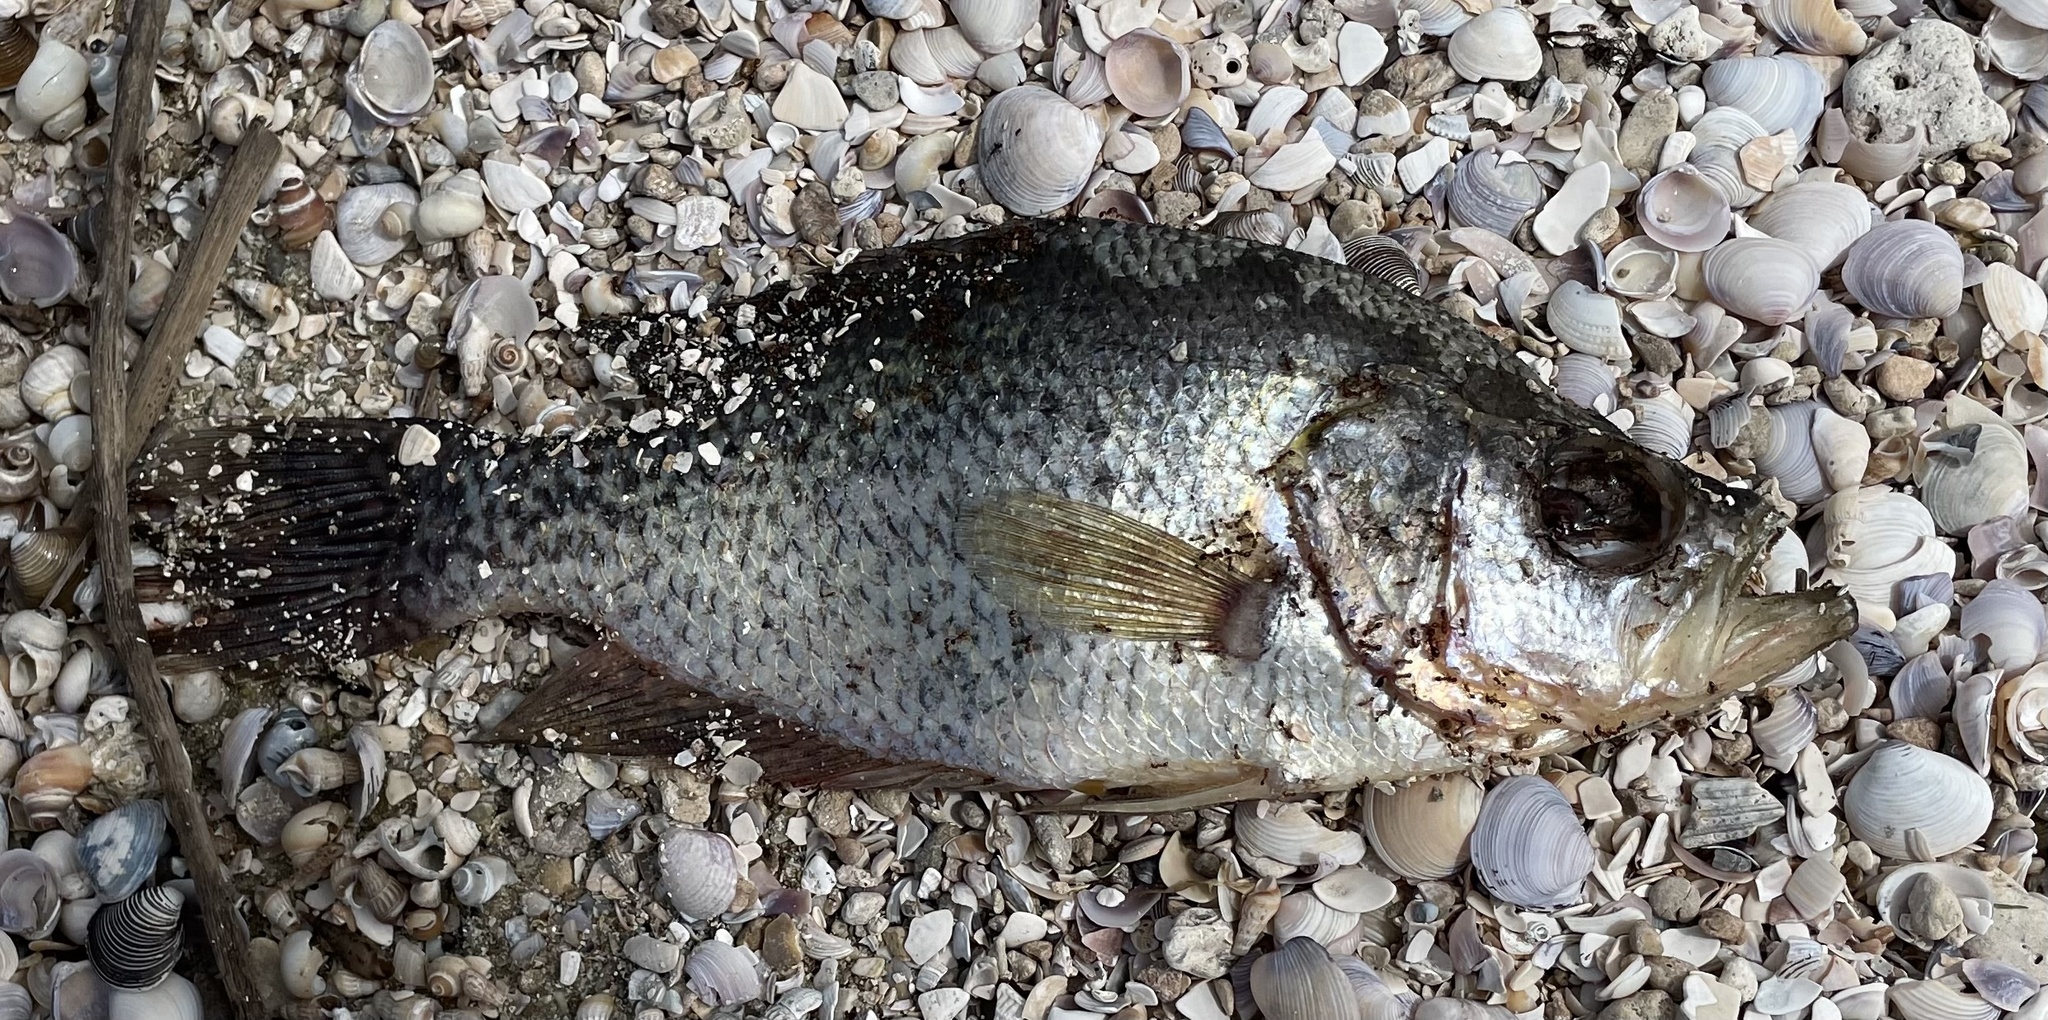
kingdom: Animalia
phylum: Chordata
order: Perciformes
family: Centrarchidae
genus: Pomoxis
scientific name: Pomoxis nigromaculatus
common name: Black crappie
